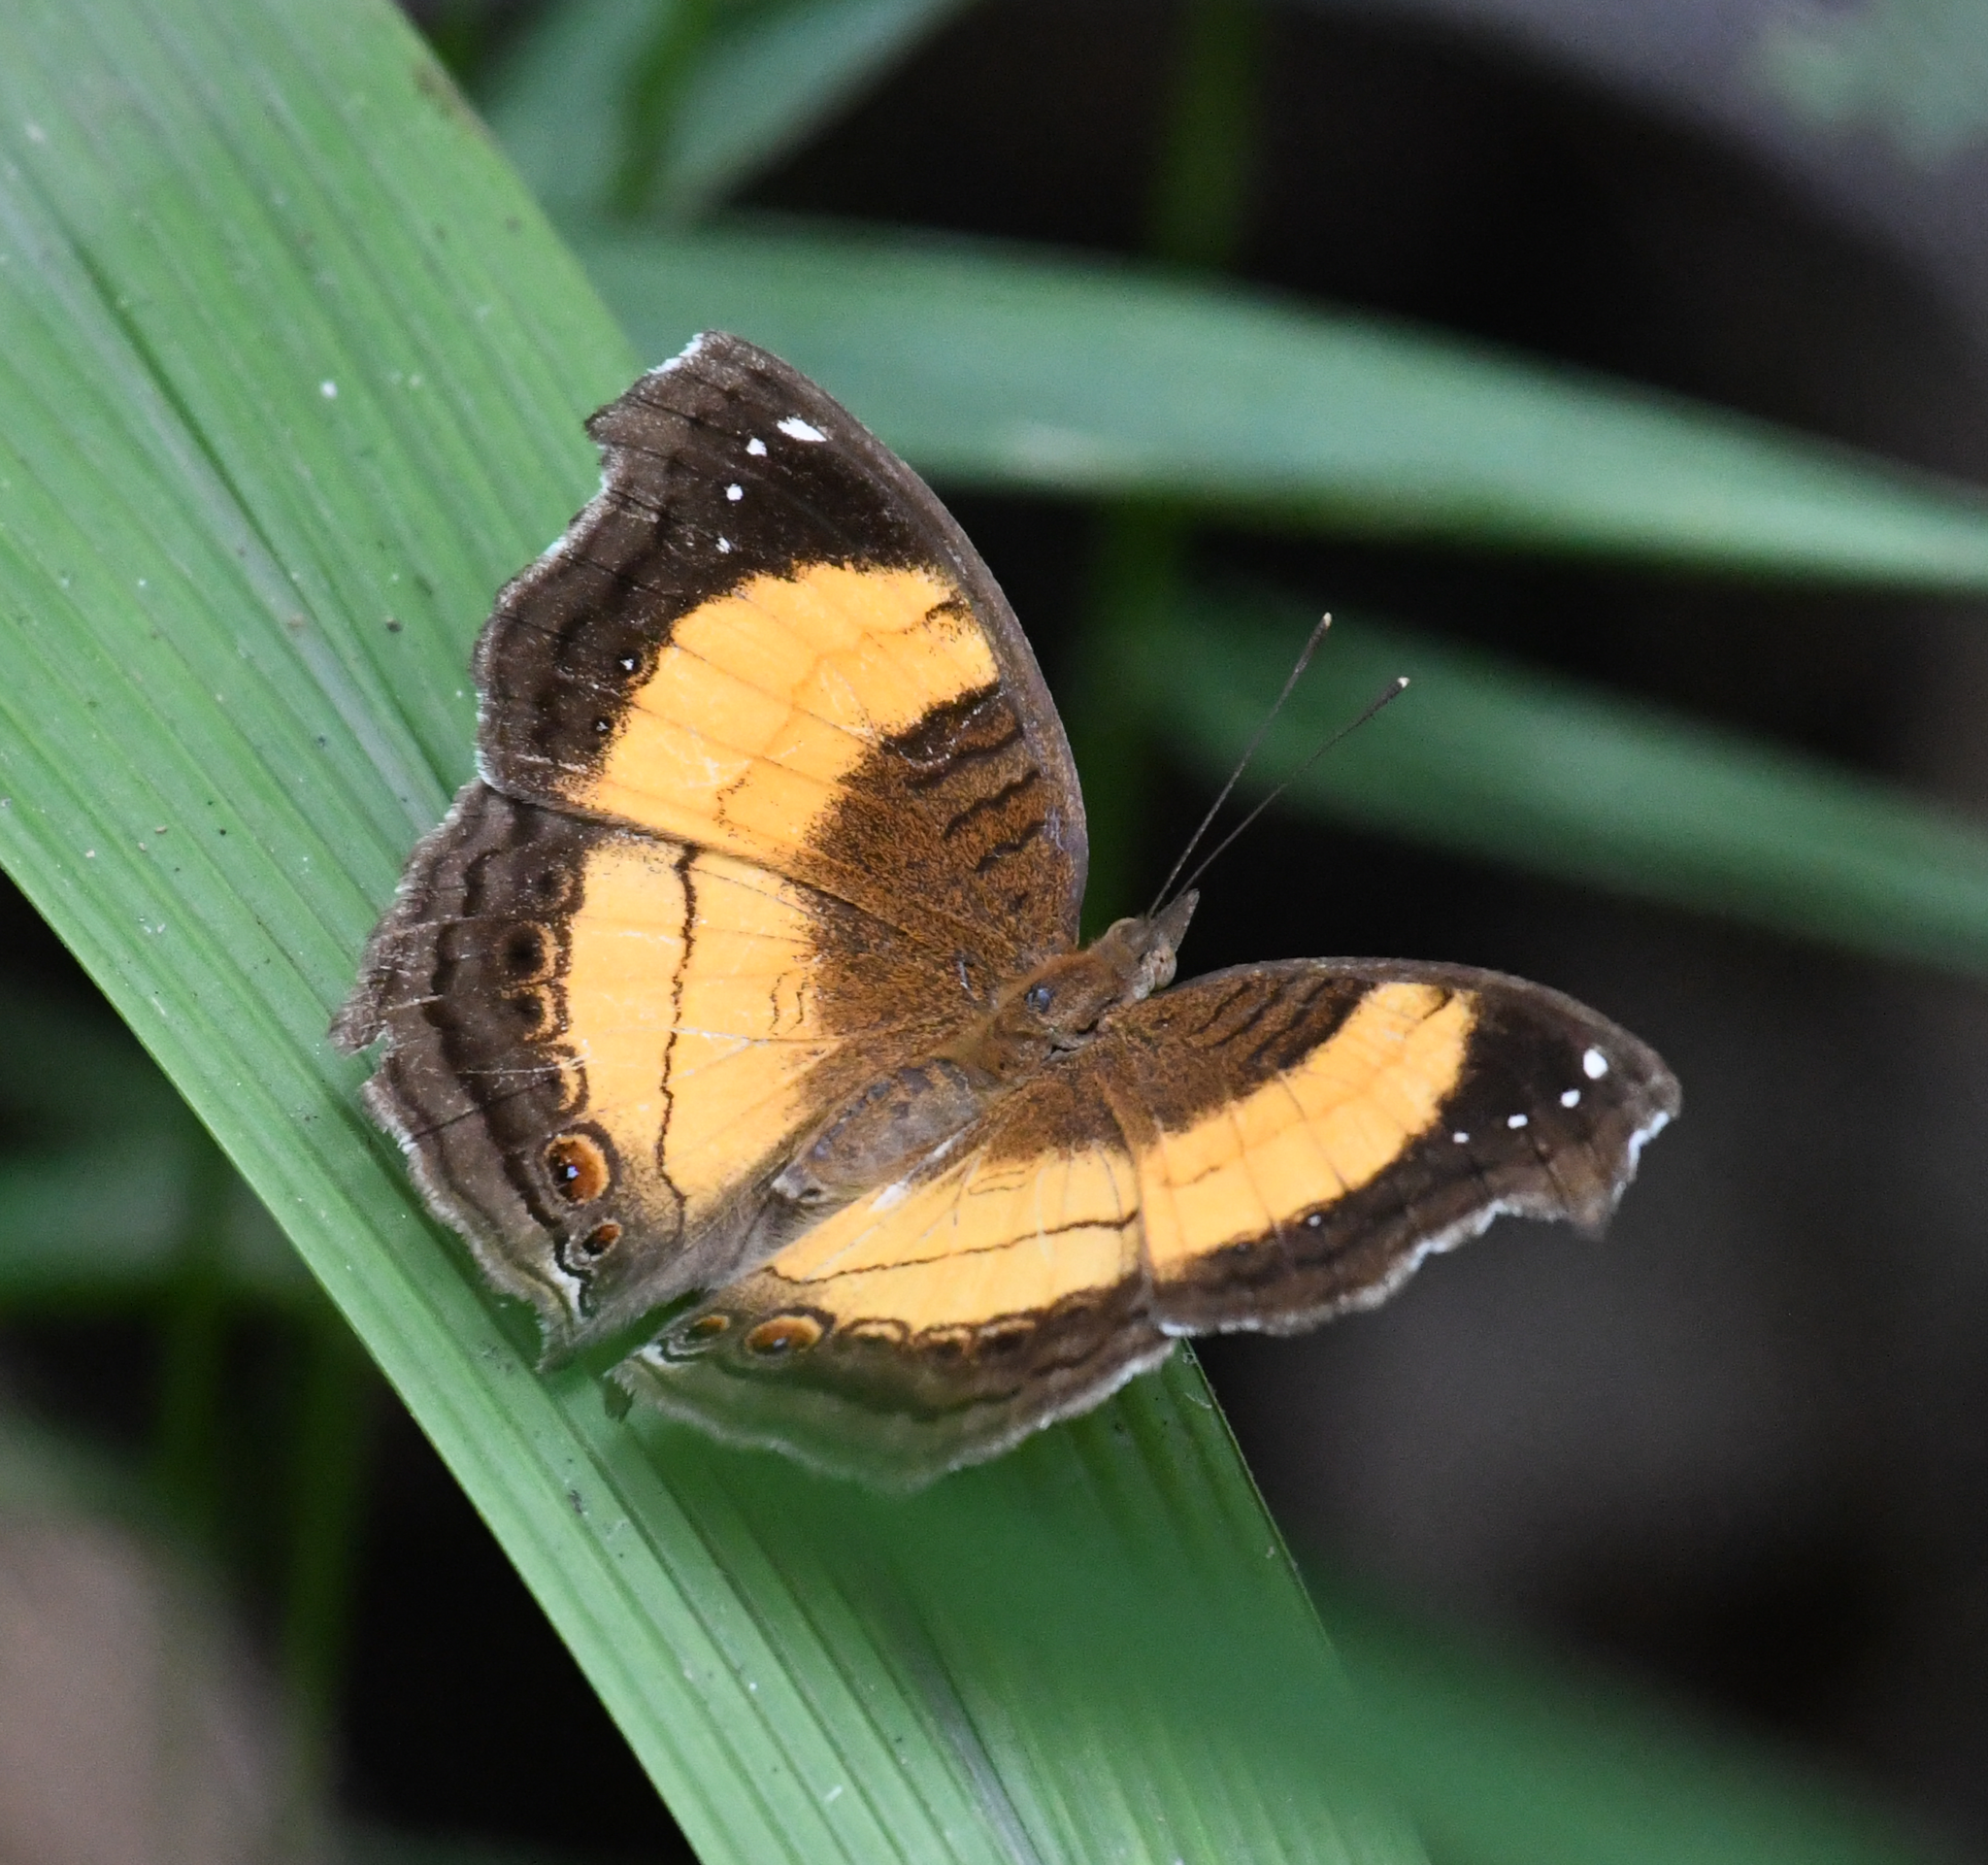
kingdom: Animalia
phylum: Arthropoda
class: Insecta
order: Lepidoptera
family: Nymphalidae
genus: Junonia
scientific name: Junonia terea
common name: Soldier pansy
